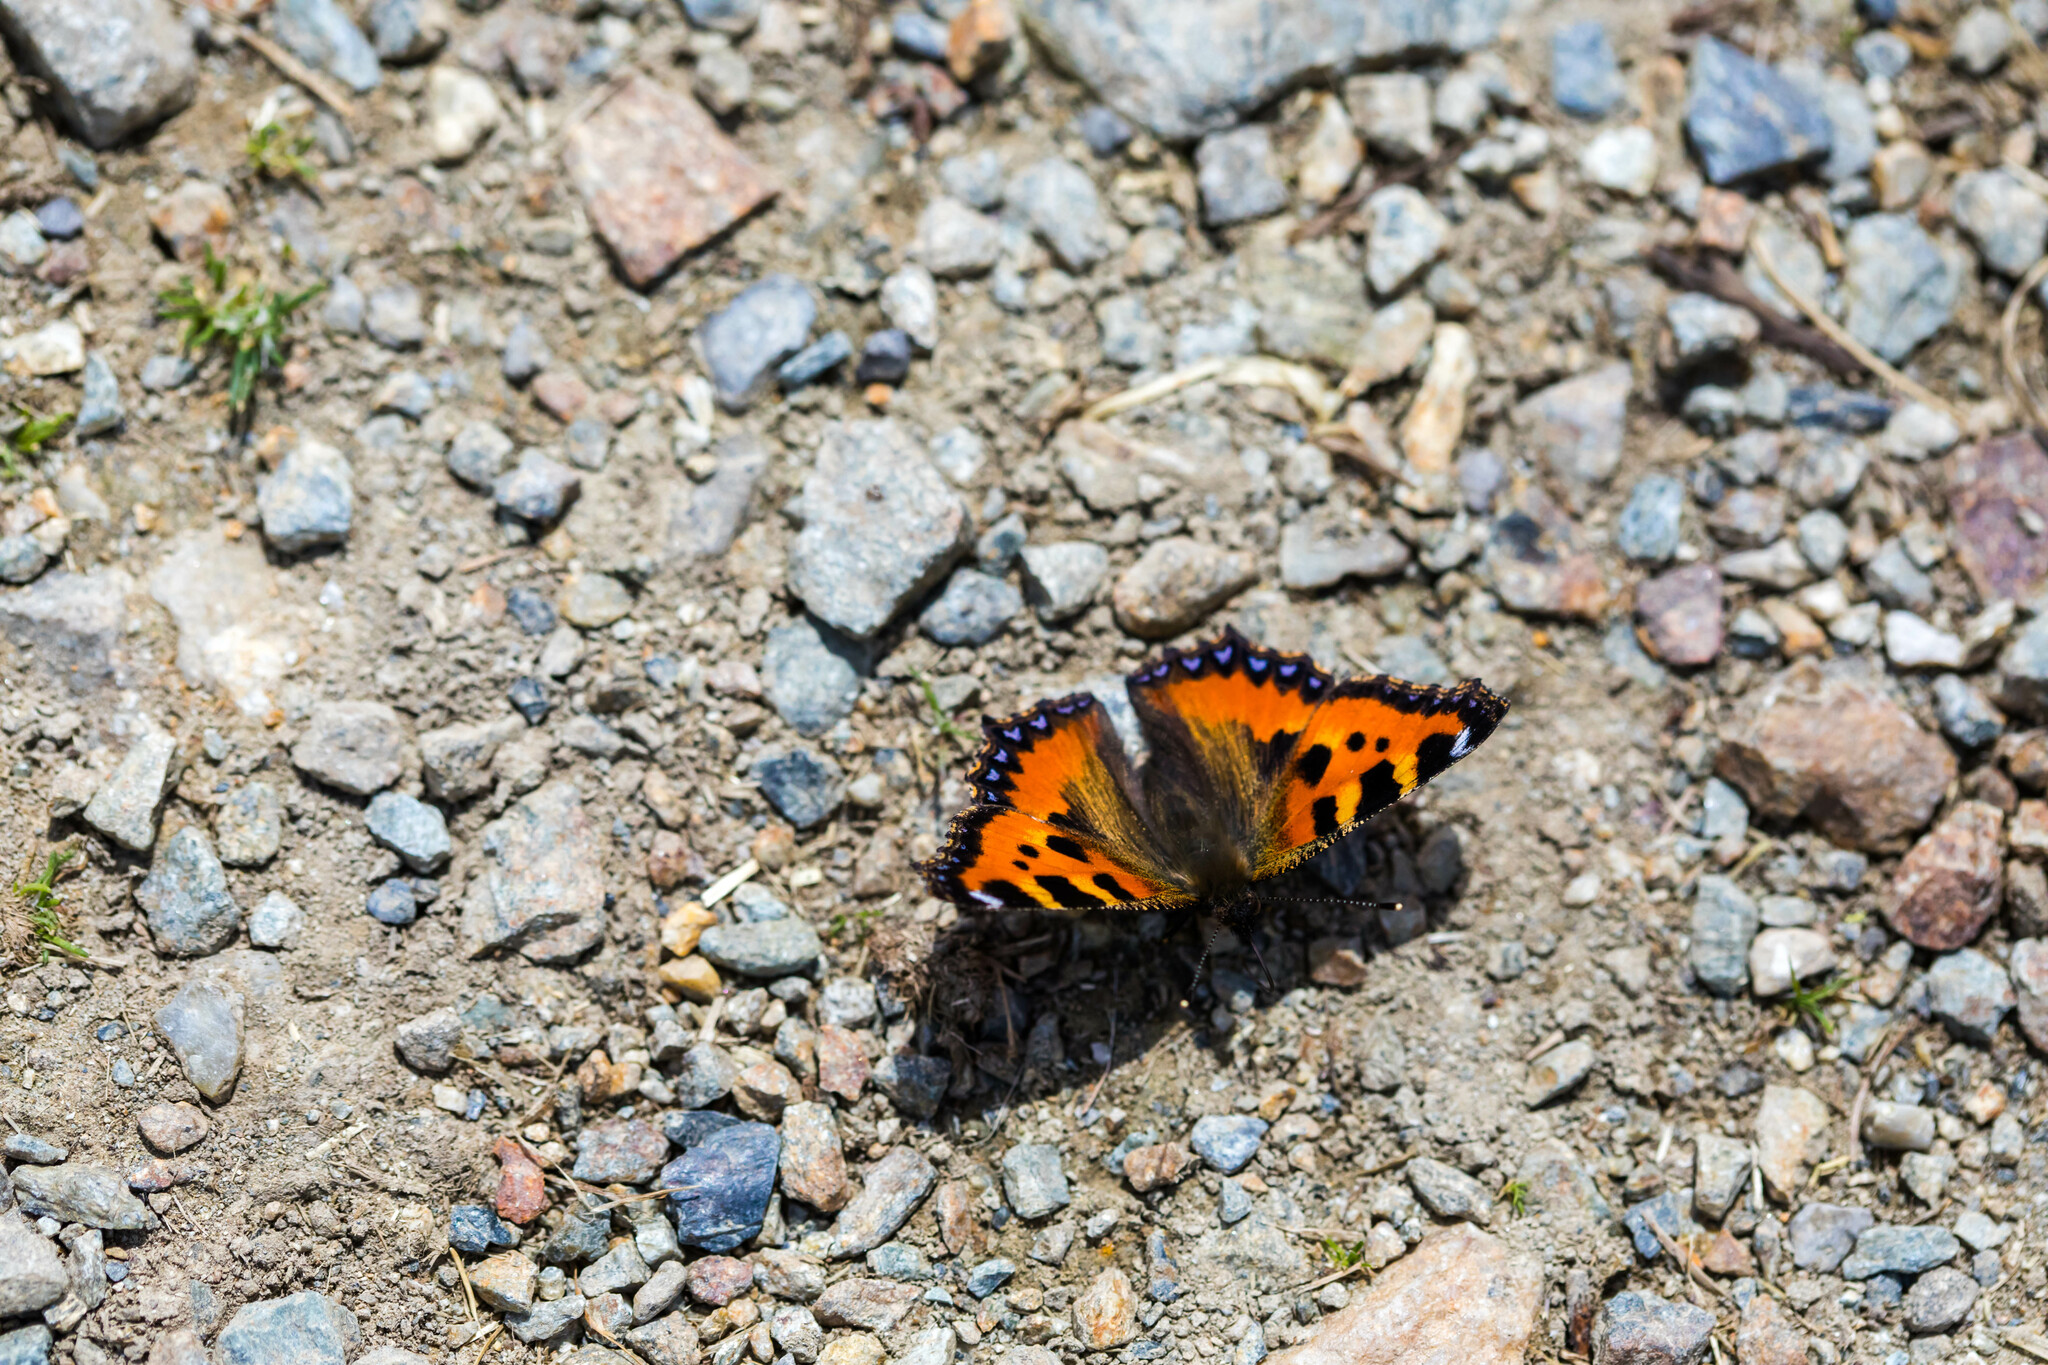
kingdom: Animalia
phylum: Arthropoda
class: Insecta
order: Lepidoptera
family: Nymphalidae
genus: Aglais
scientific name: Aglais urticae
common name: Small tortoiseshell
